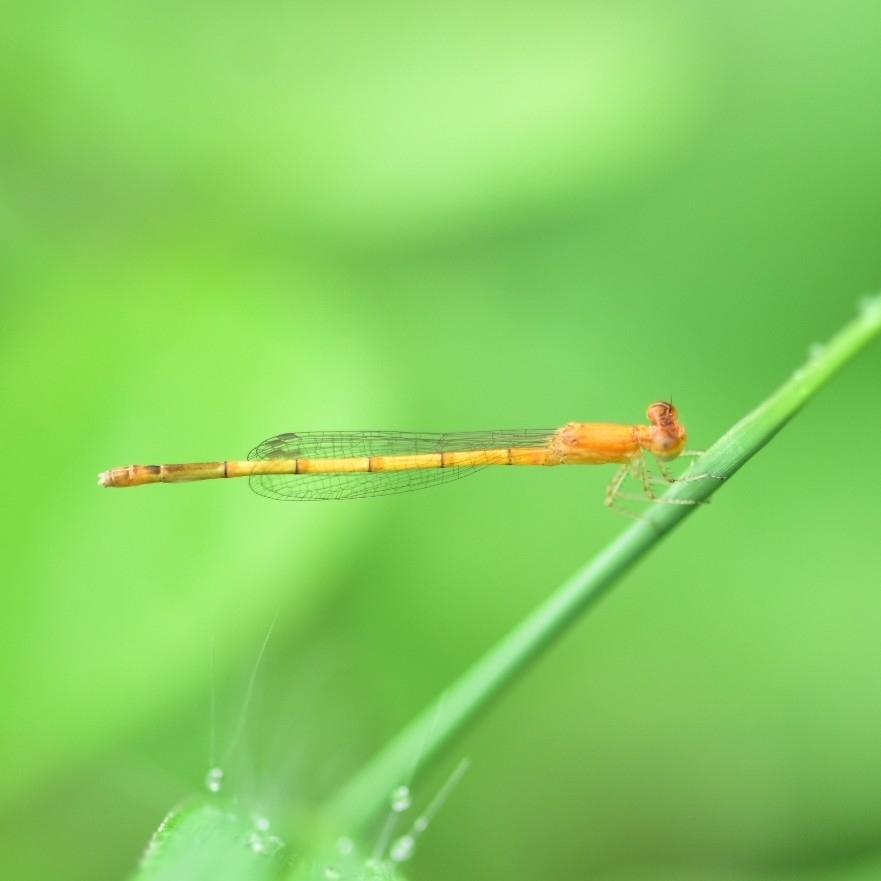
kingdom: Animalia
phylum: Arthropoda
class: Insecta
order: Odonata
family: Coenagrionidae
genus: Agriocnemis
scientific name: Agriocnemis pieris
